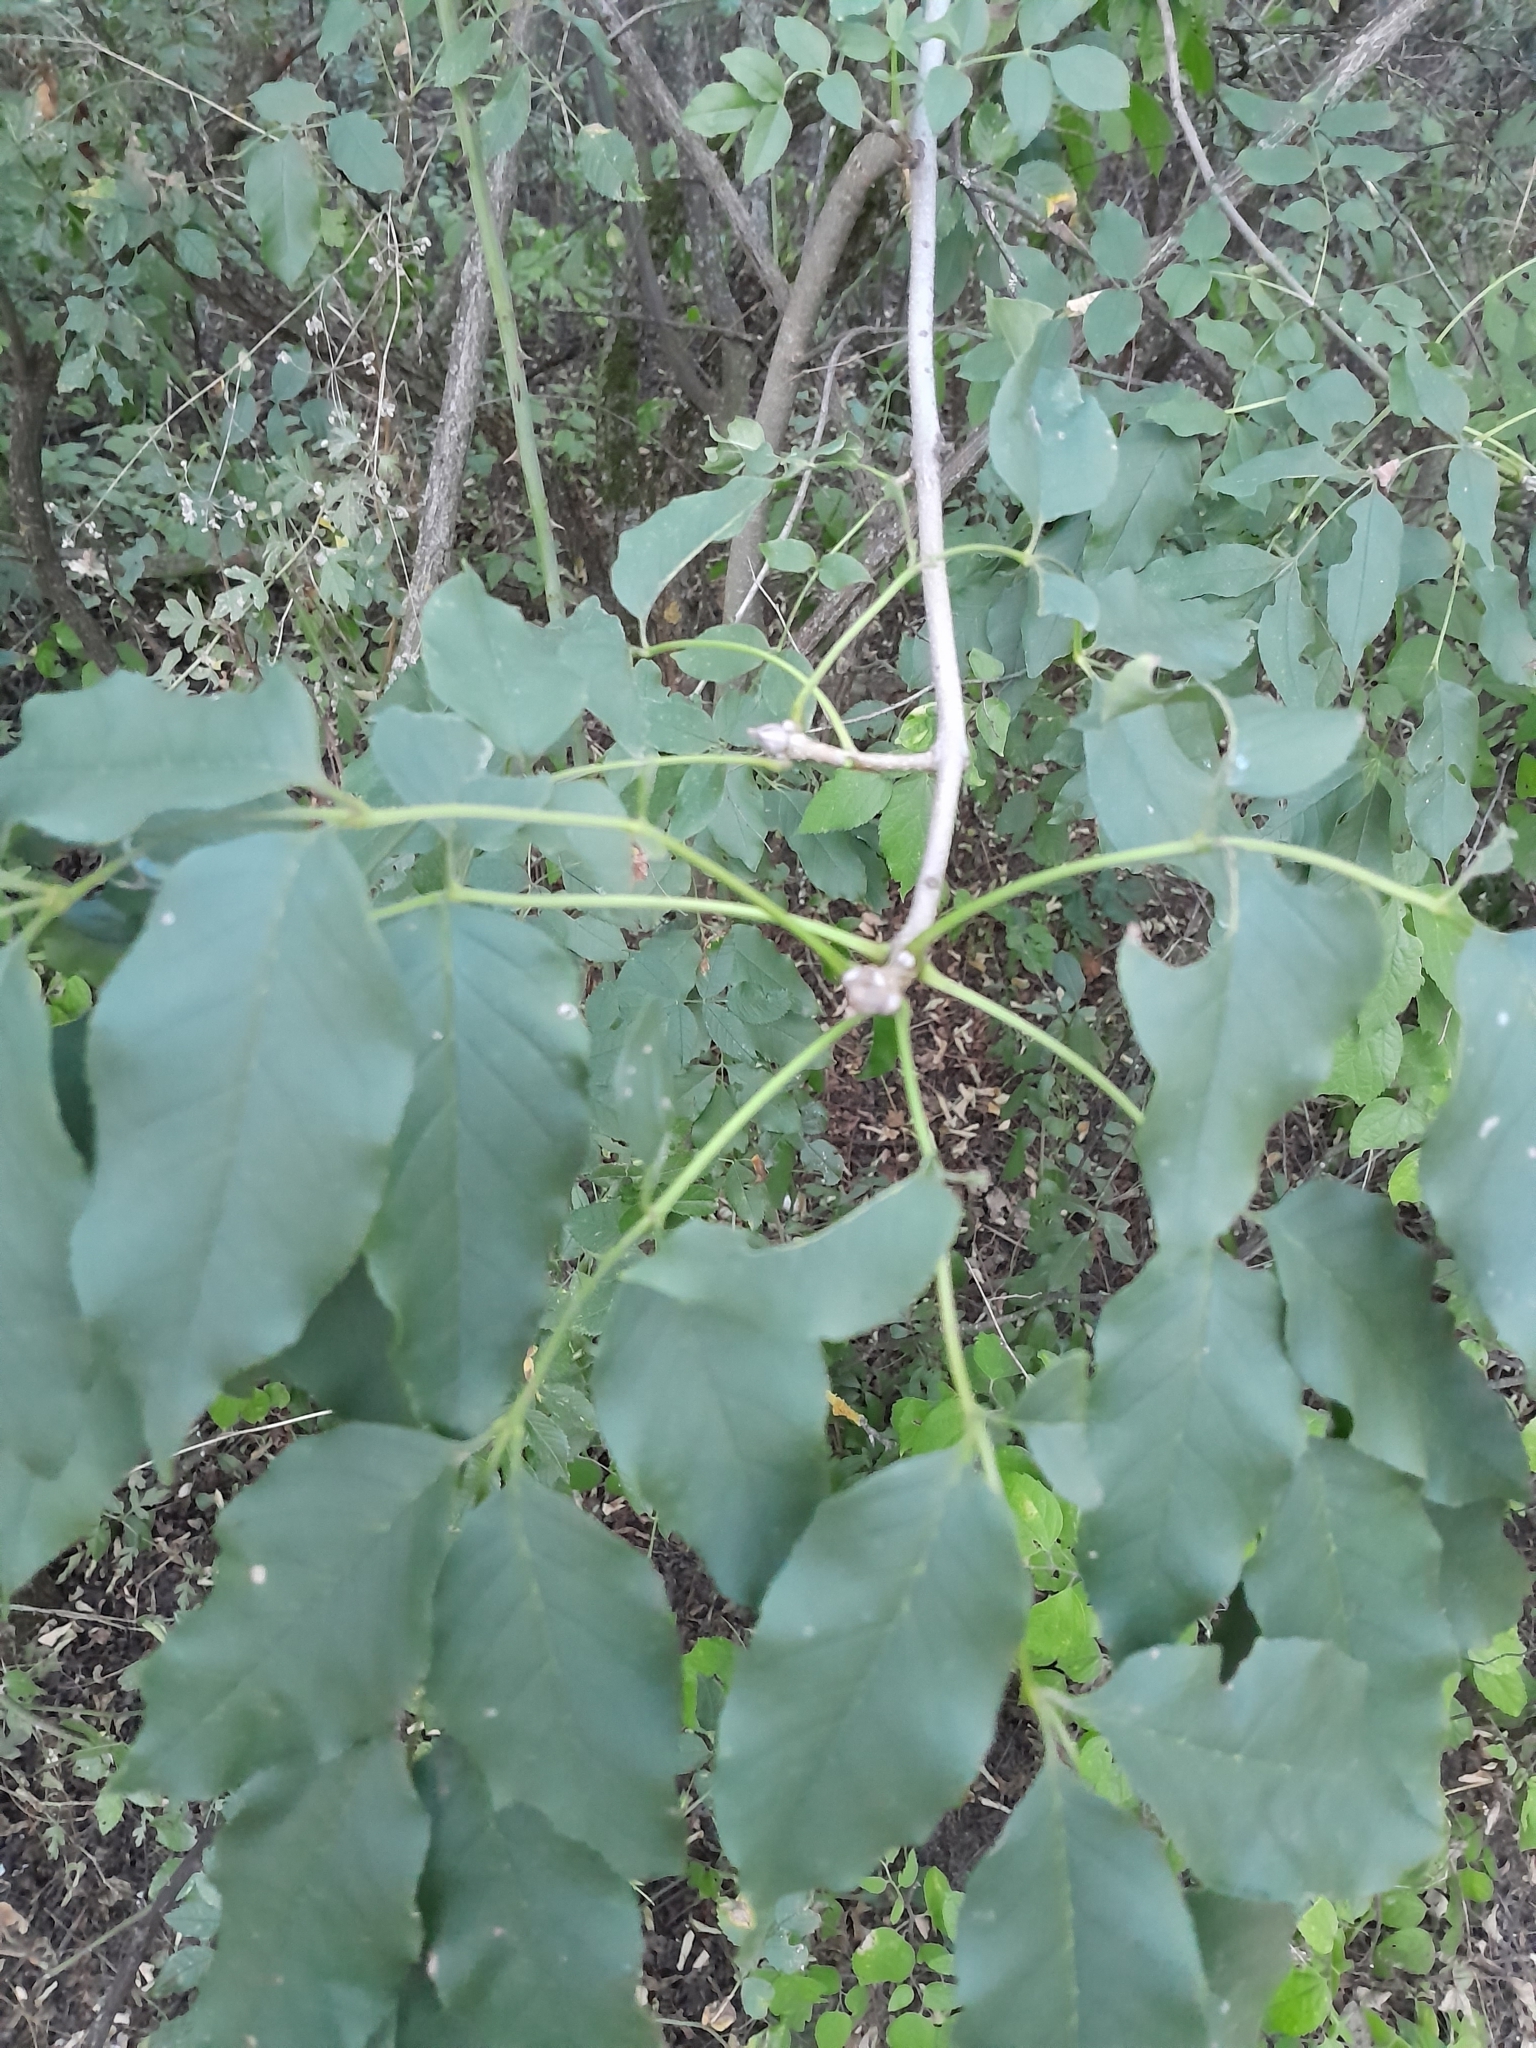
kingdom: Plantae
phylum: Tracheophyta
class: Magnoliopsida
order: Lamiales
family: Oleaceae
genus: Fraxinus
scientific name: Fraxinus ornus
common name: Manna ash
